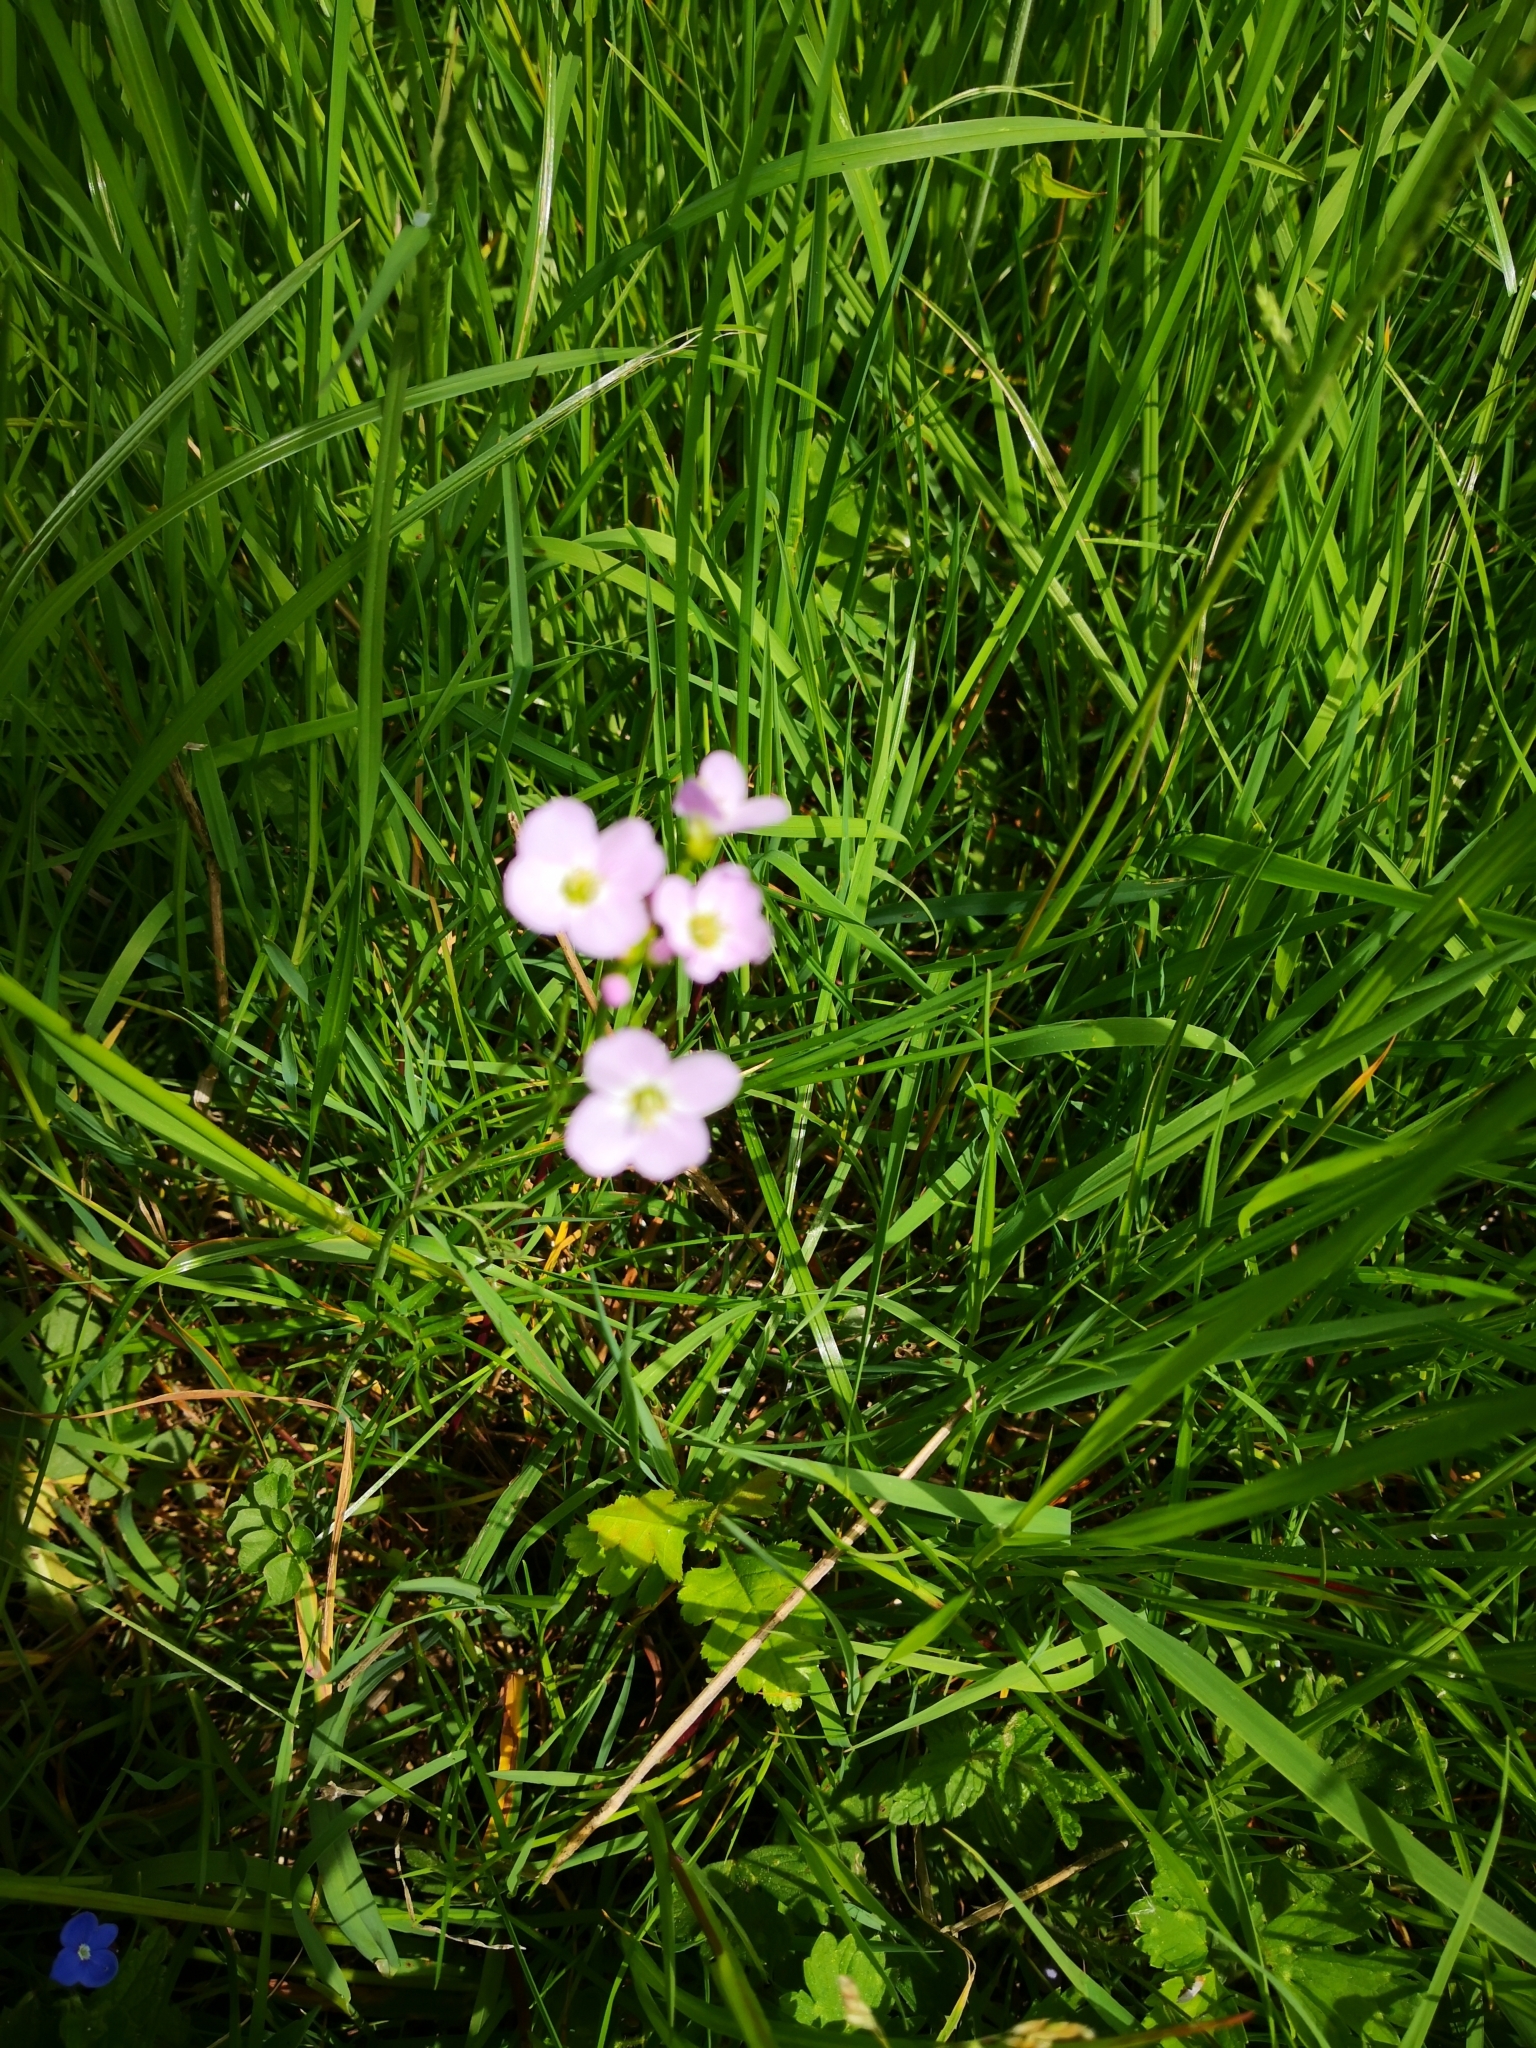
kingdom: Plantae
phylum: Tracheophyta
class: Magnoliopsida
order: Brassicales
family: Brassicaceae
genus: Cardamine
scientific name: Cardamine pratensis
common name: Cuckoo flower
